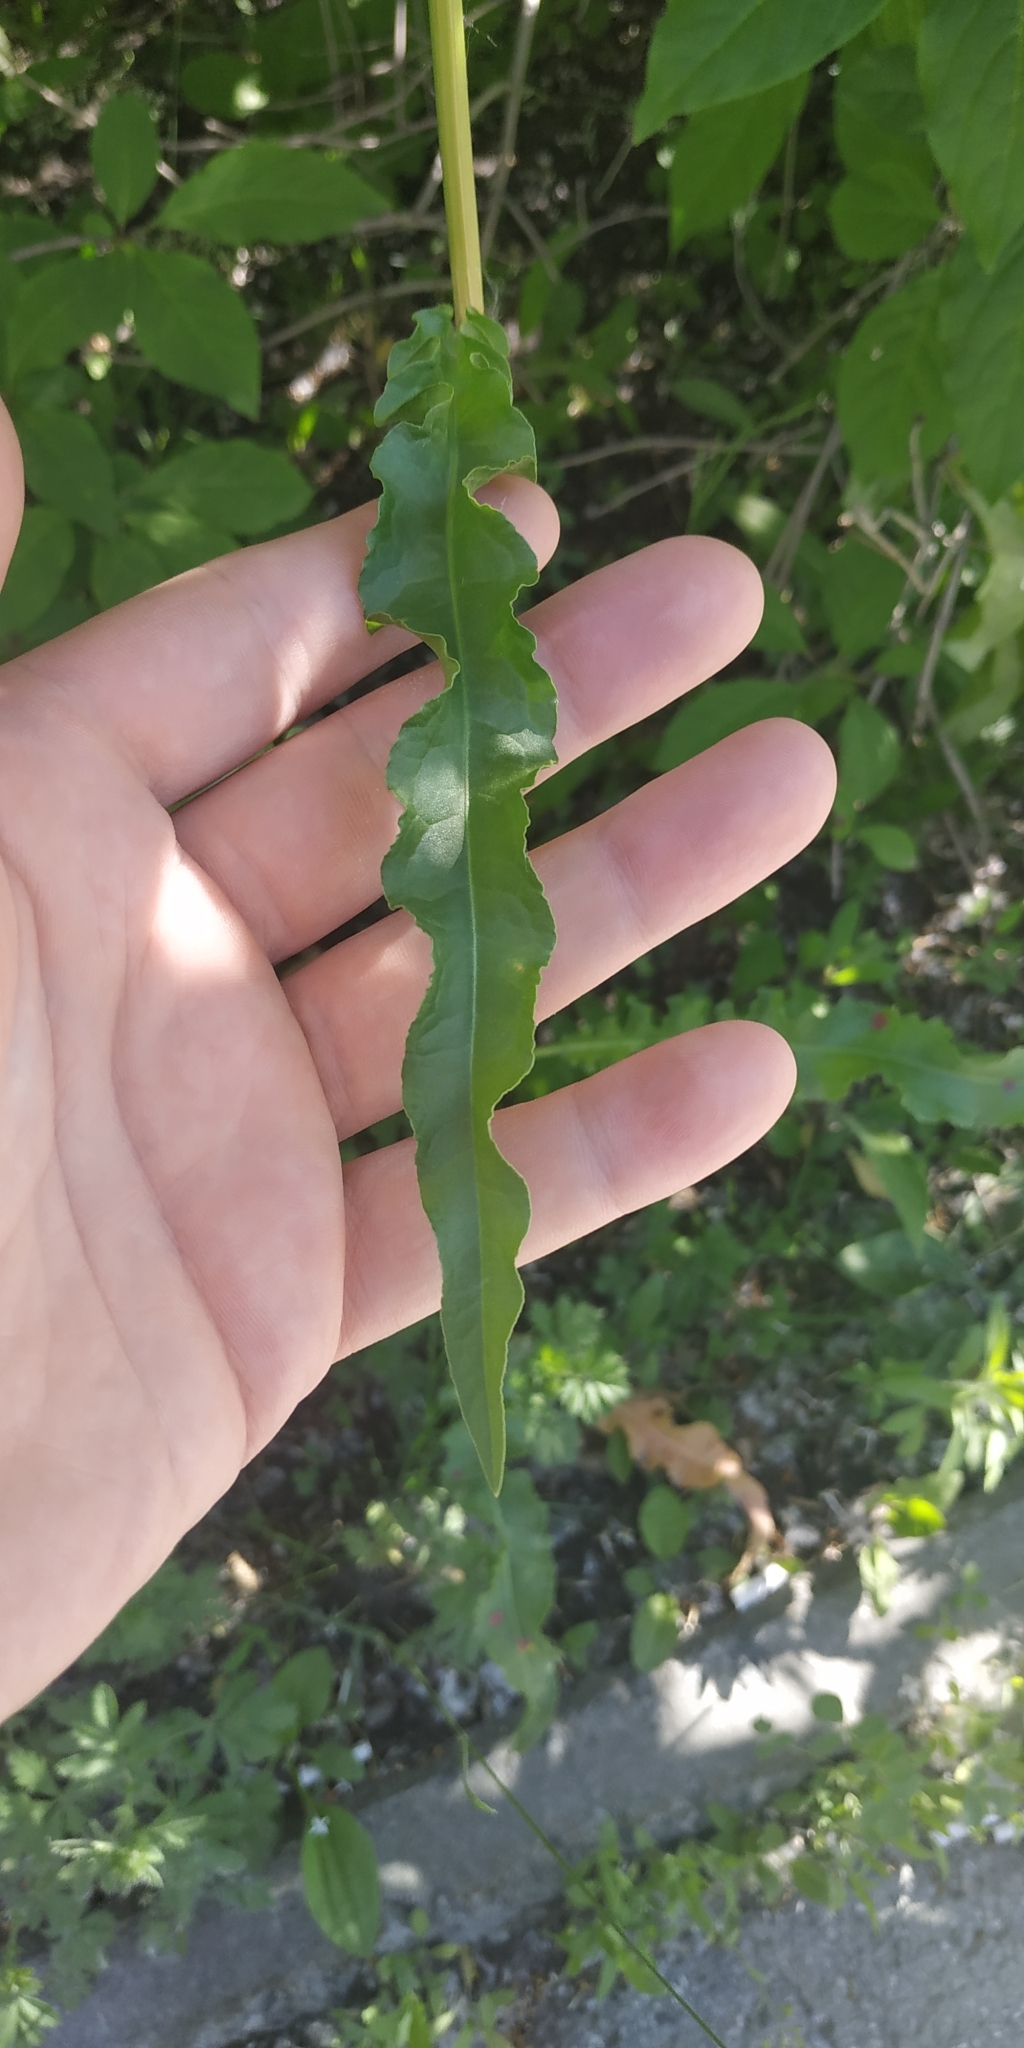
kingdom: Plantae
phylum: Tracheophyta
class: Magnoliopsida
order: Caryophyllales
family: Polygonaceae
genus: Rumex
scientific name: Rumex pseudonatronatus
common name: Field dock
